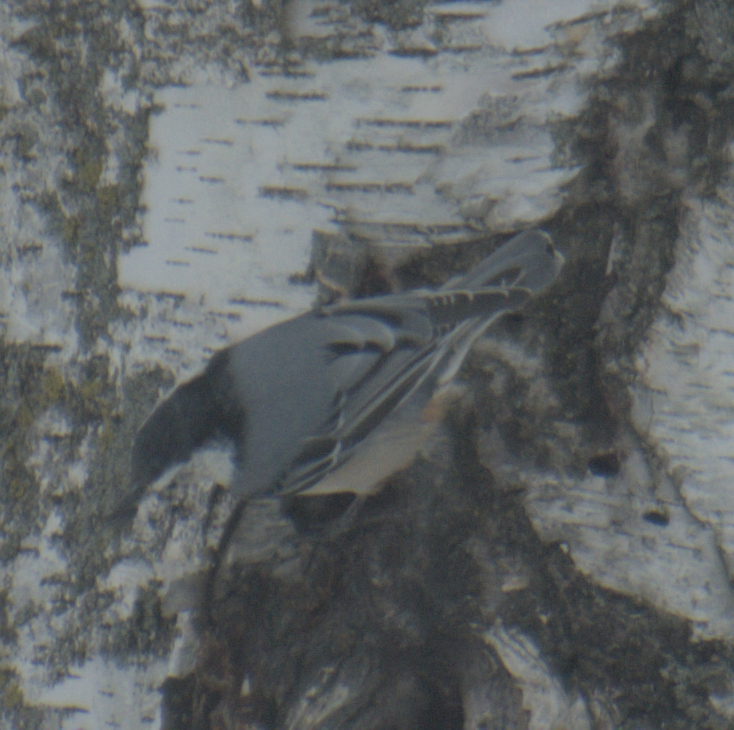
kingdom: Animalia
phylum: Chordata
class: Aves
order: Passeriformes
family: Sittidae
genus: Sitta
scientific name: Sitta carolinensis
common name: White-breasted nuthatch
